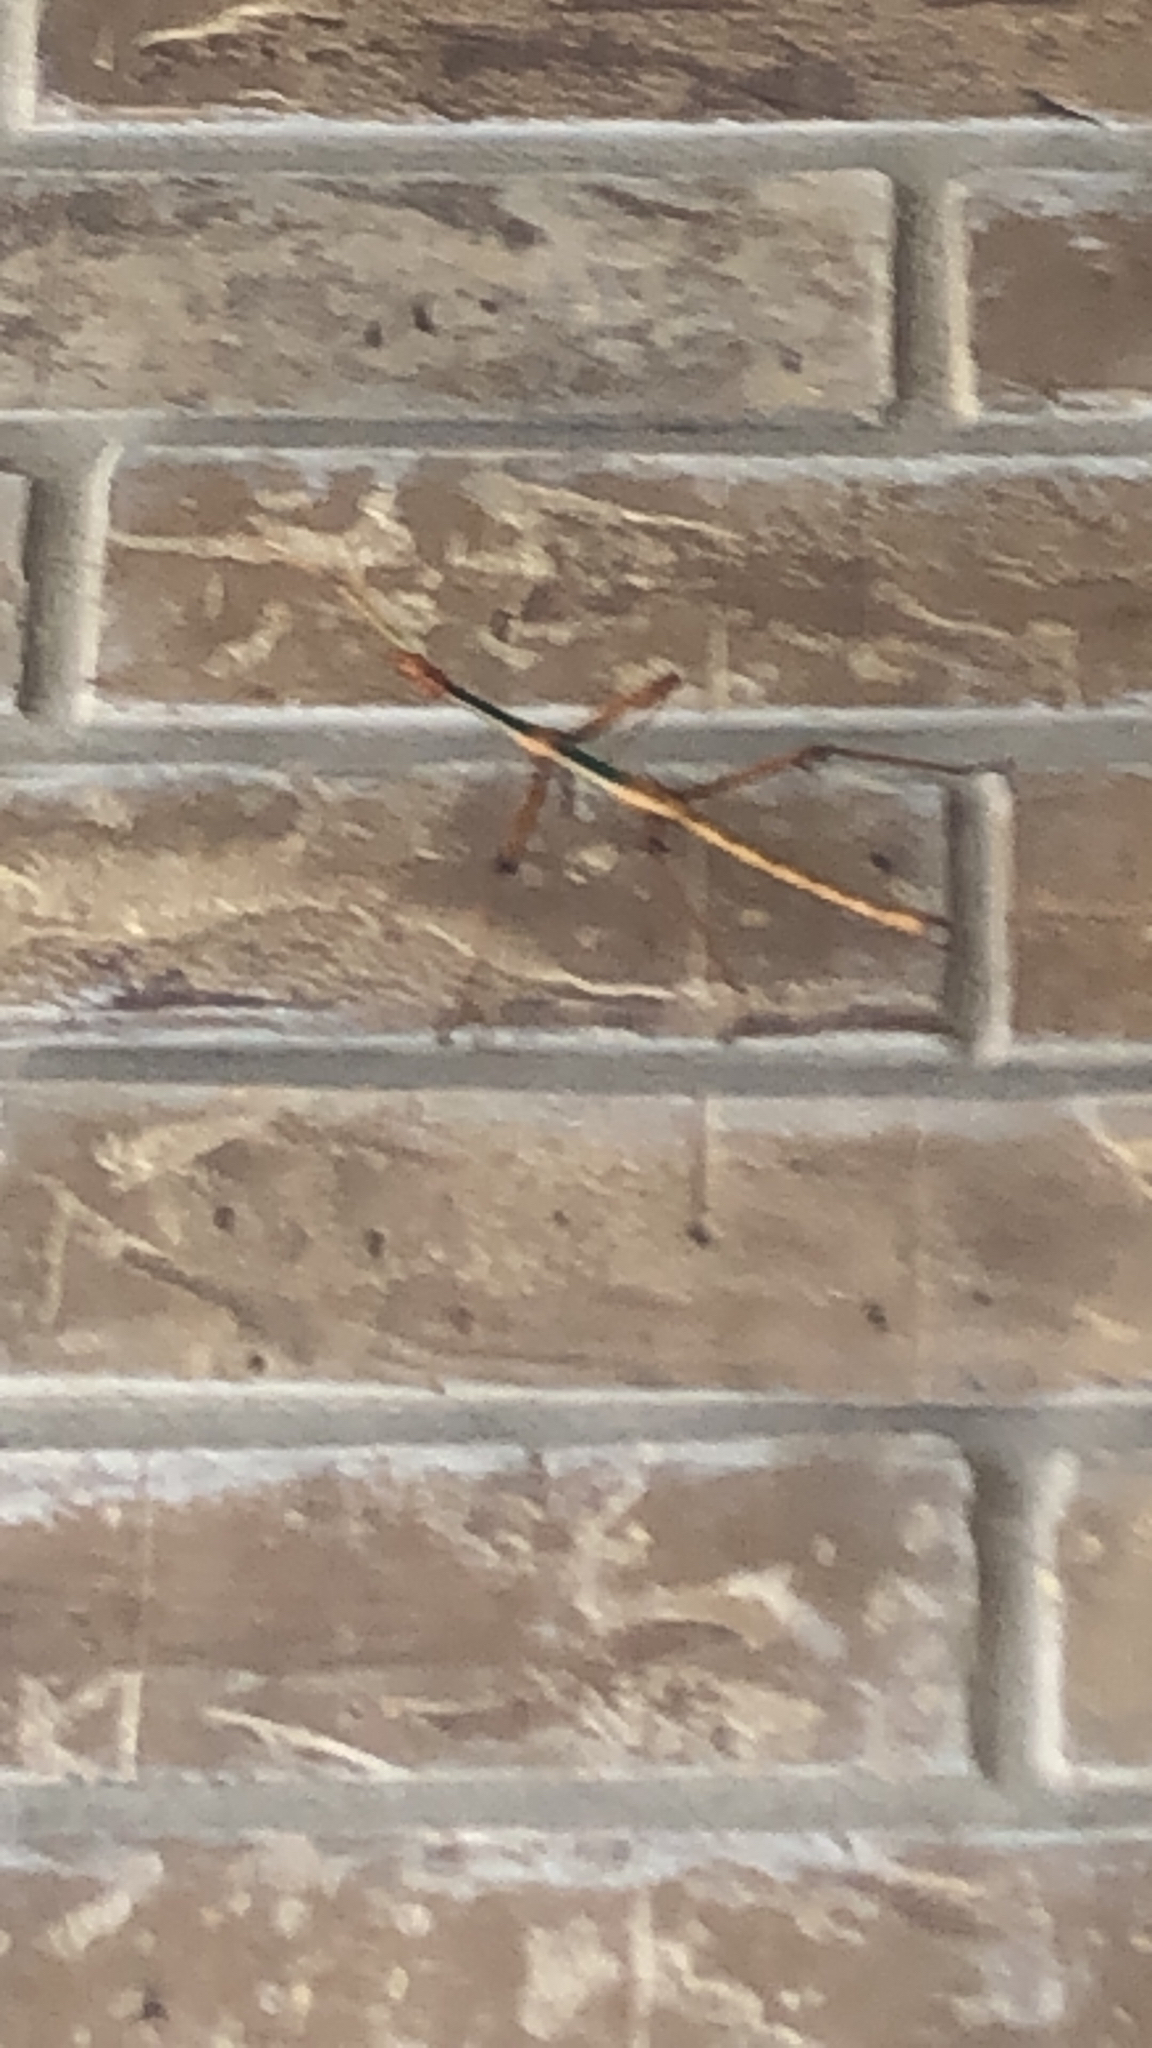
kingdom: Animalia
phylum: Arthropoda
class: Insecta
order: Phasmida
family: Diapheromeridae
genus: Megaphasma
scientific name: Megaphasma denticrus
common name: Giant walkingstick
